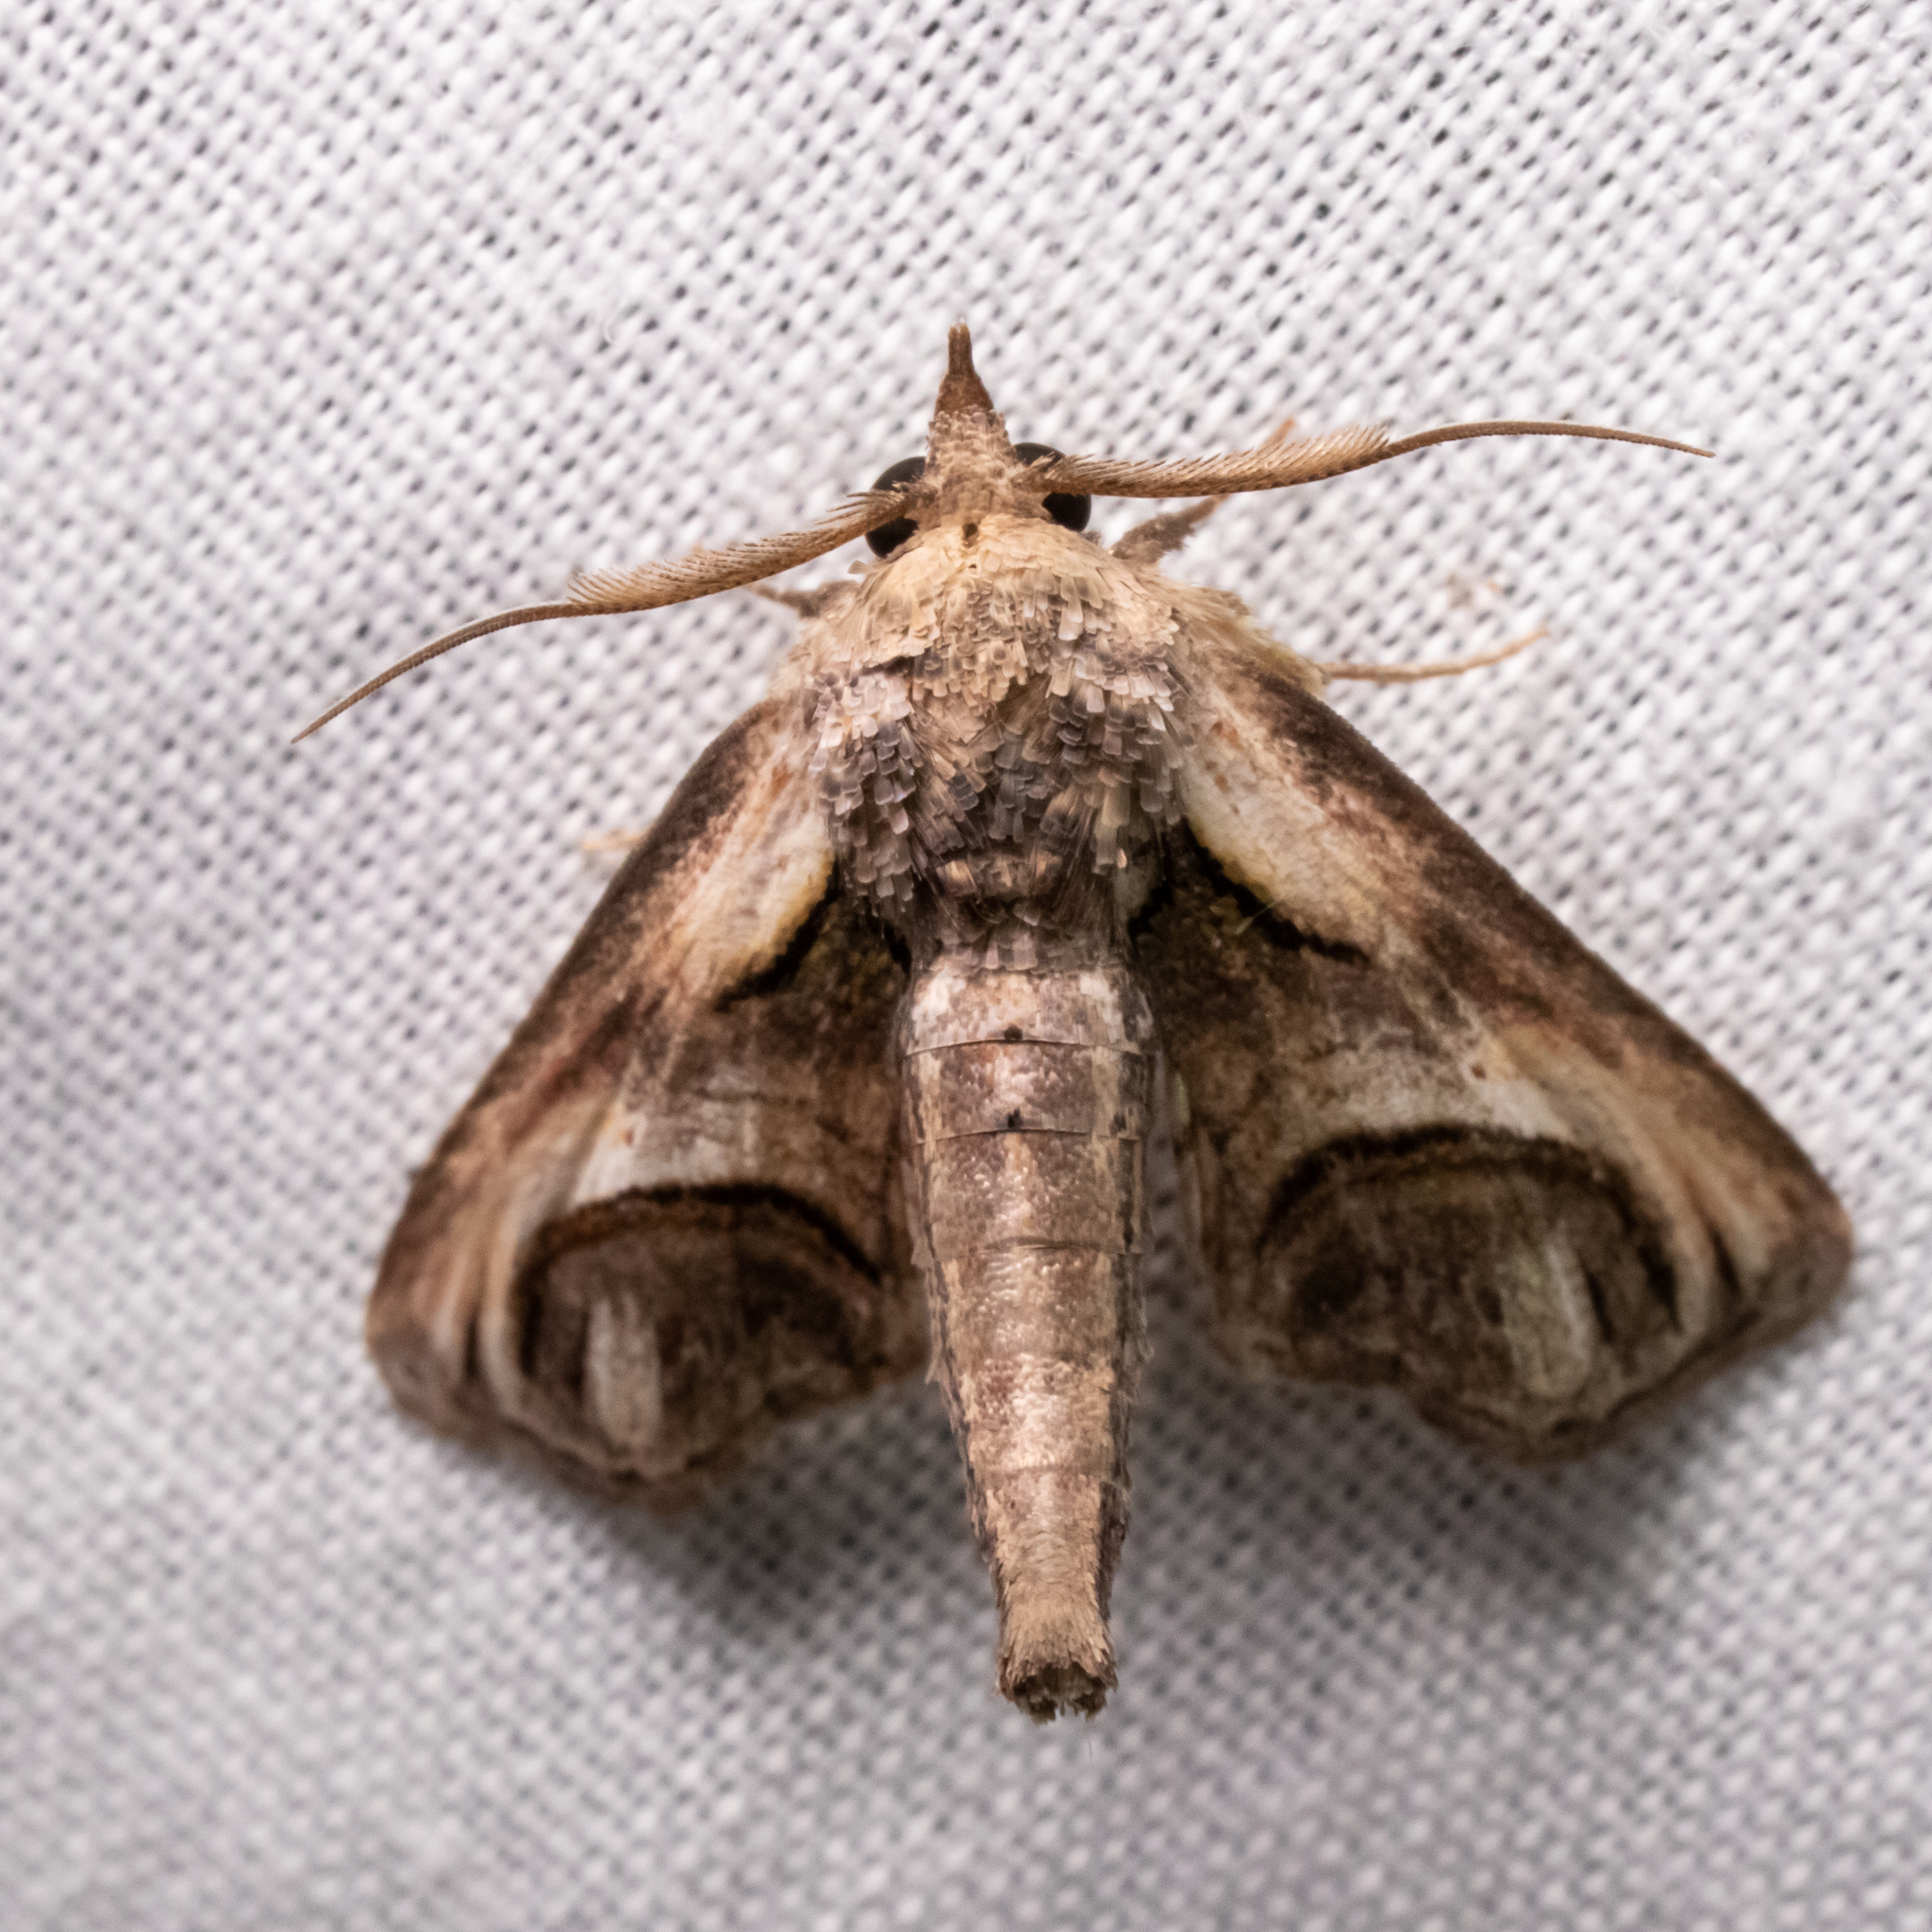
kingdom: Animalia
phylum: Arthropoda
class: Insecta
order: Lepidoptera
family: Euteliidae
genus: Paectes
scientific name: Paectes oculatrix
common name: Eyed paectes moth
